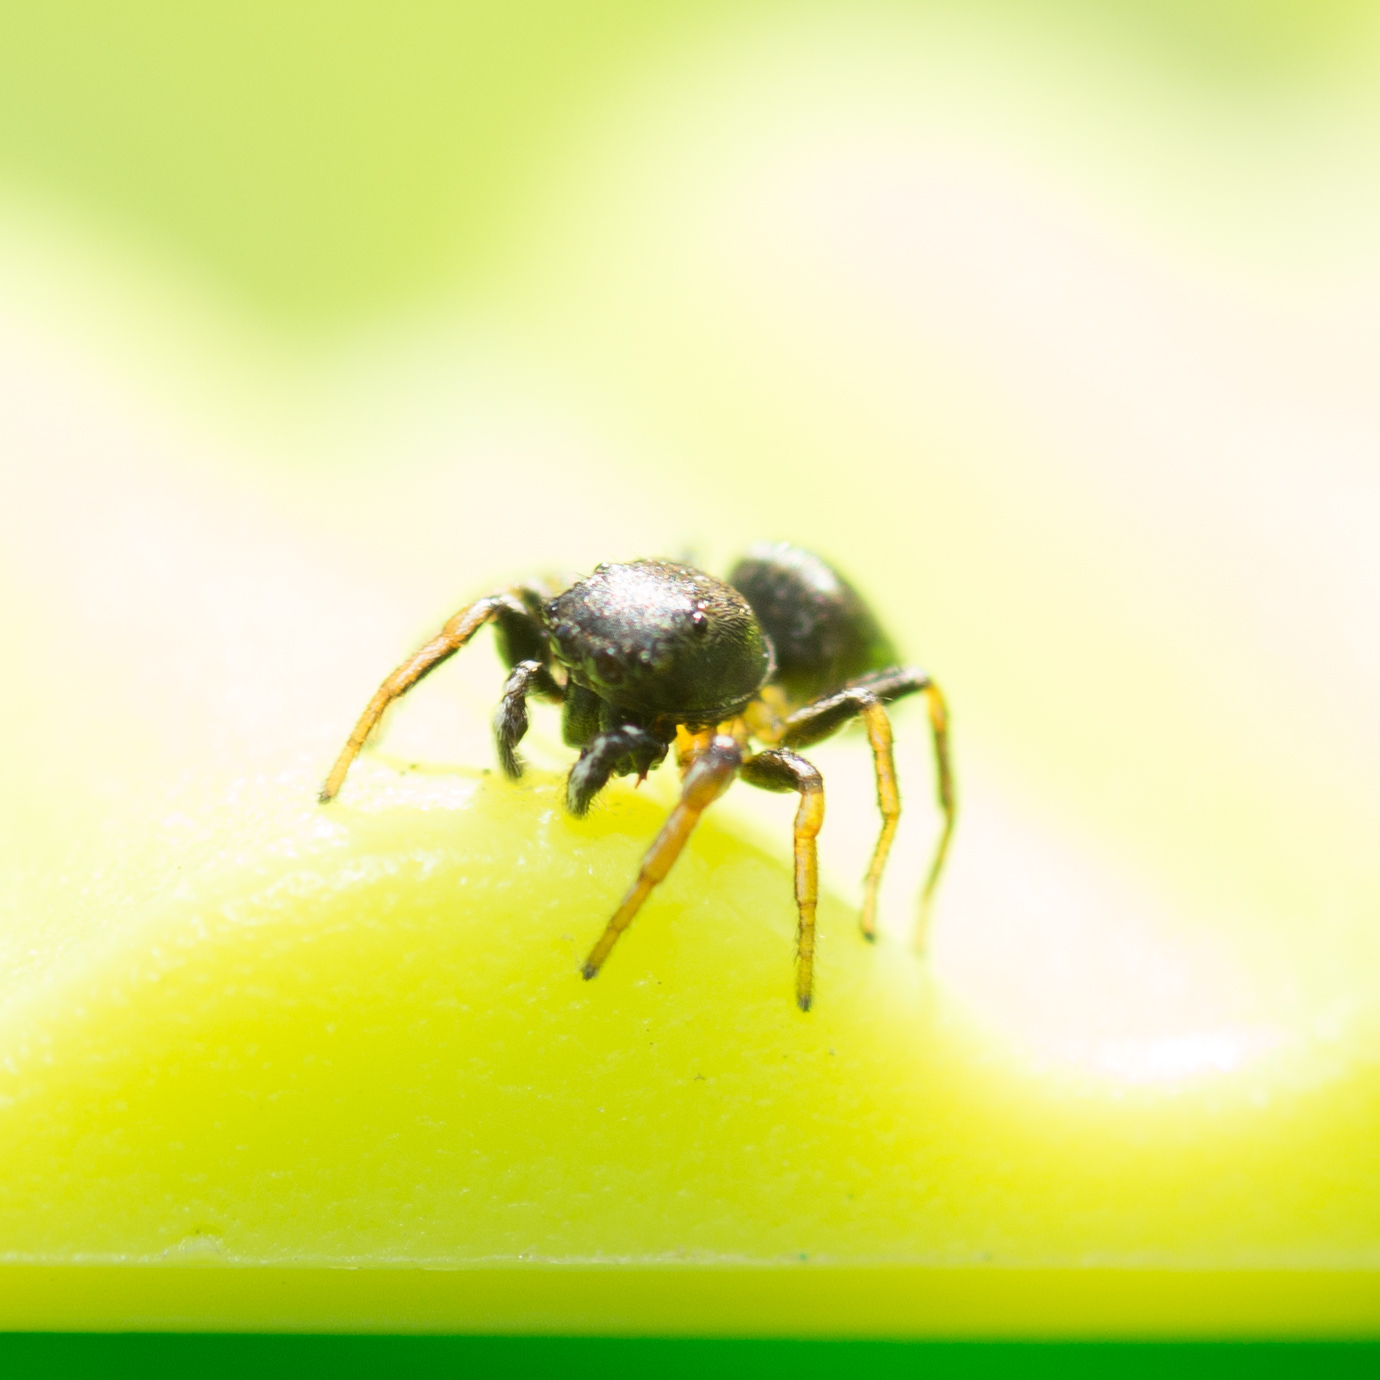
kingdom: Animalia
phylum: Arthropoda
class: Arachnida
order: Araneae
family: Salticidae
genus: Heliophanus
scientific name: Heliophanus auratus
